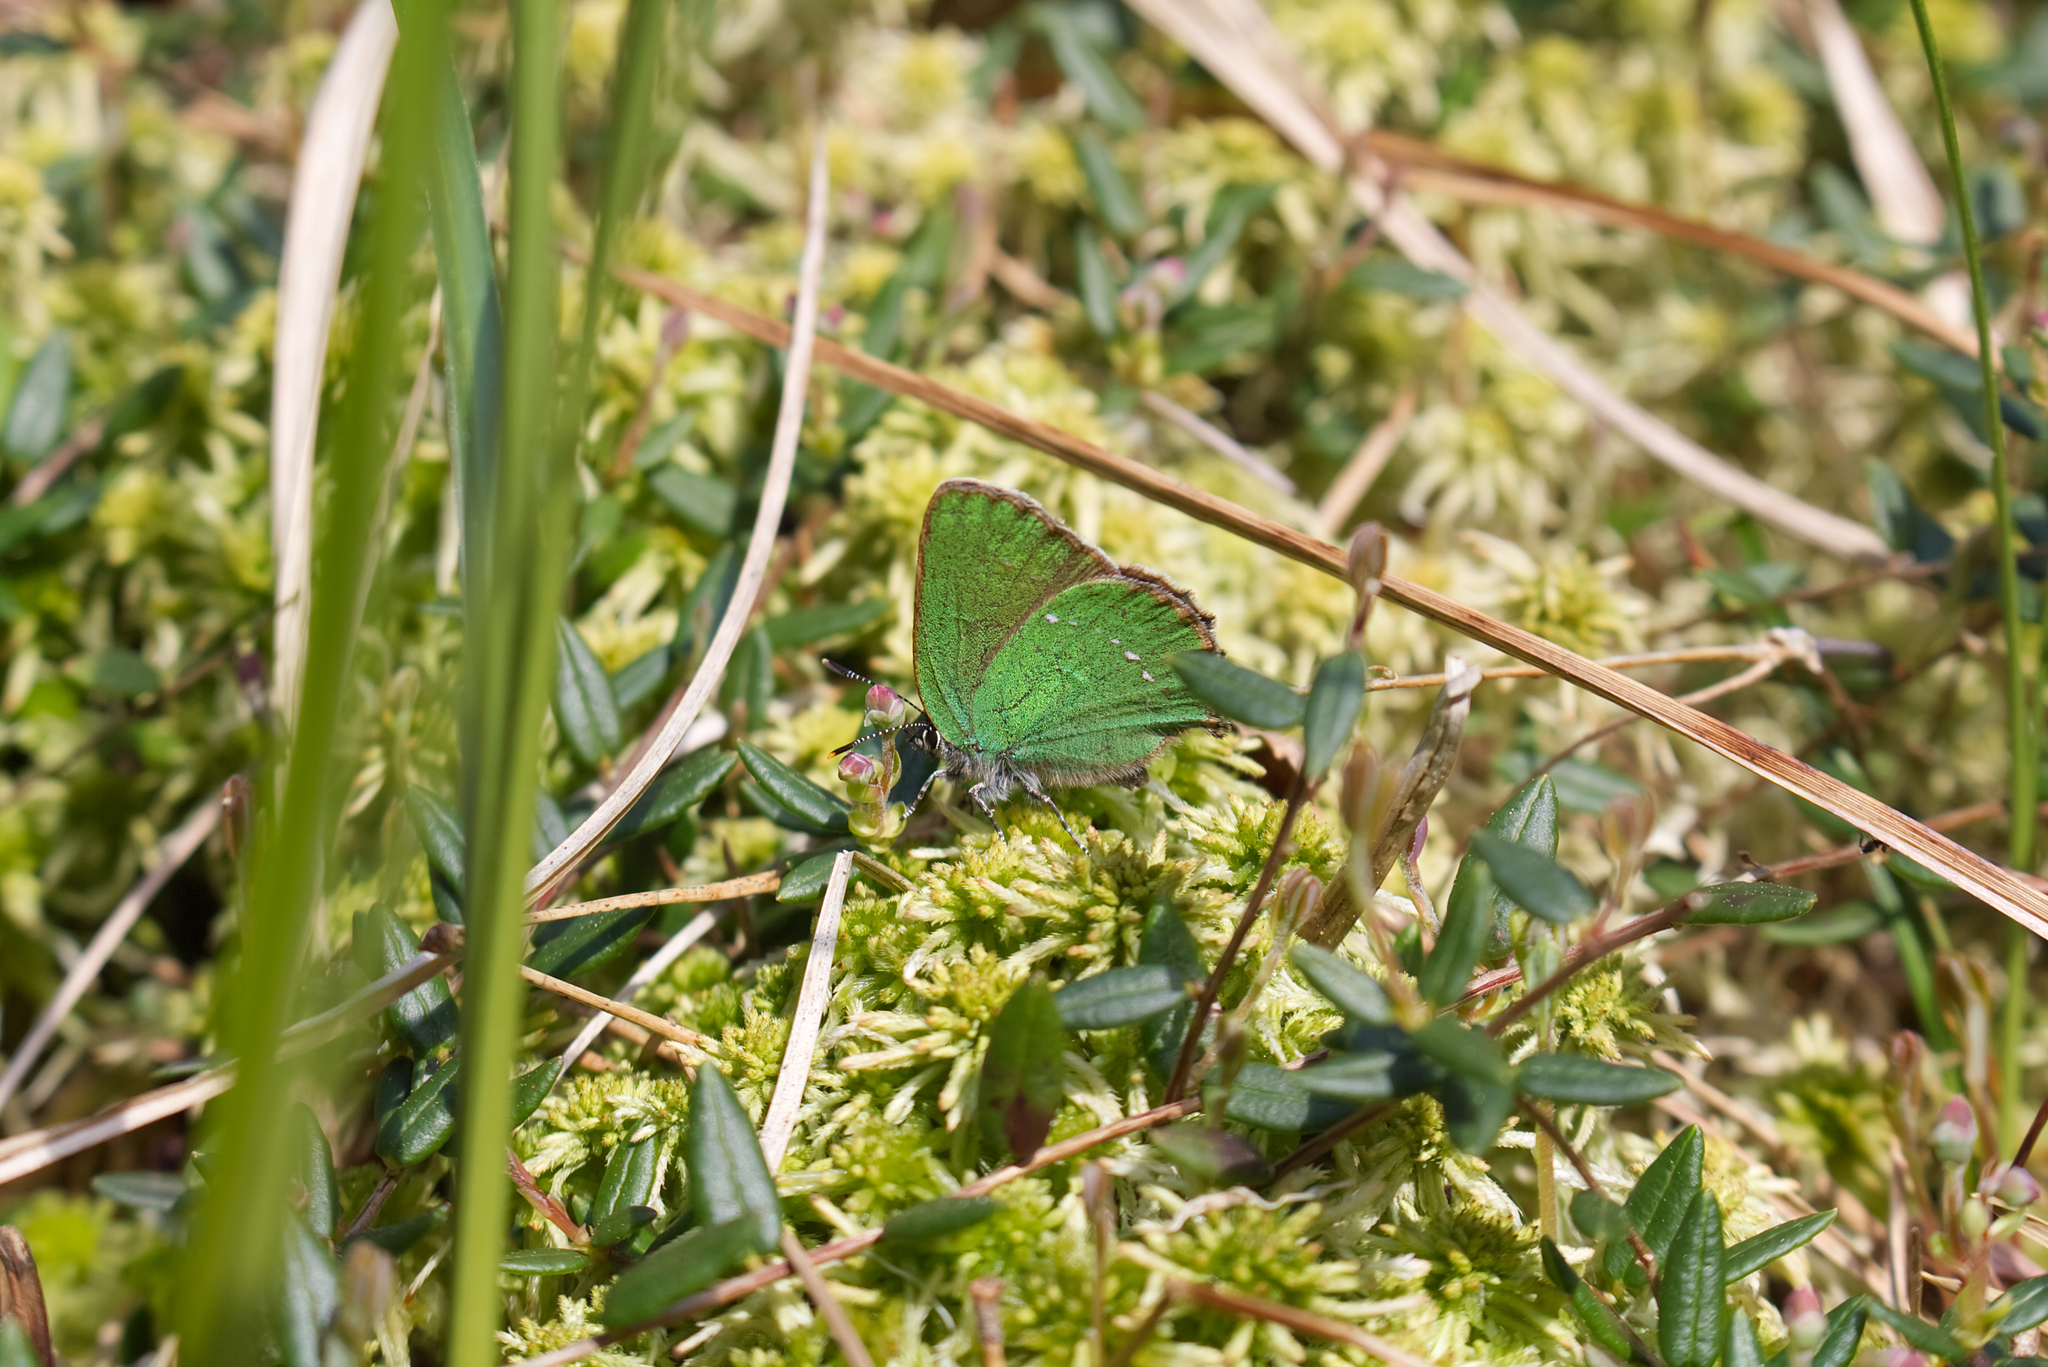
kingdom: Animalia
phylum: Arthropoda
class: Insecta
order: Lepidoptera
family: Lycaenidae
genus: Callophrys
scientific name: Callophrys rubi
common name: Green hairstreak
